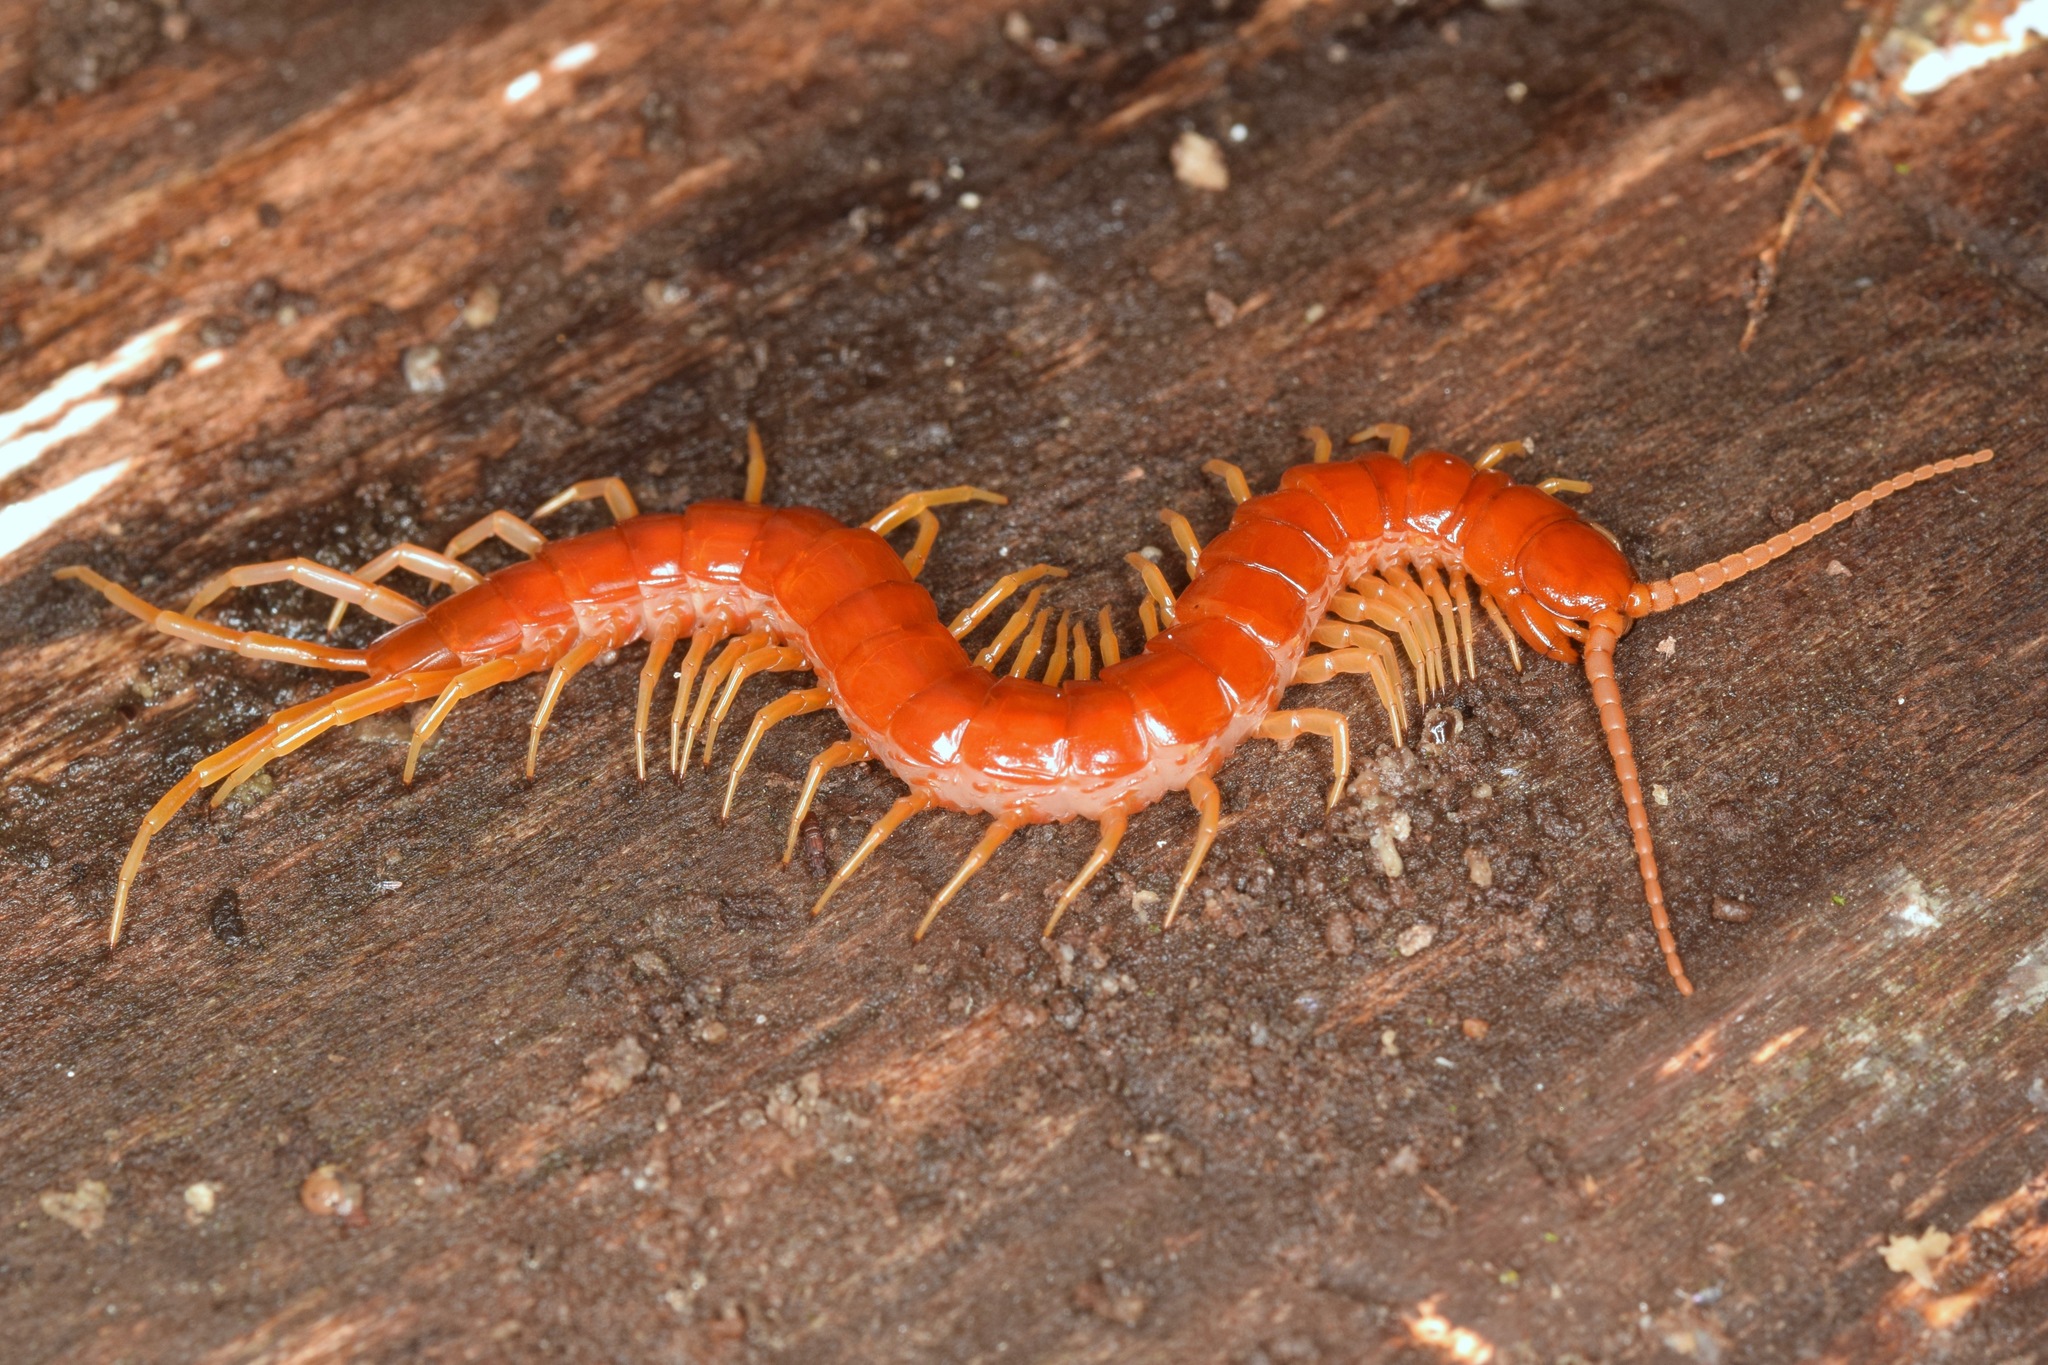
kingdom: Animalia
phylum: Arthropoda
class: Chilopoda
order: Scolopendromorpha
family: Scolopocryptopidae
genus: Scolopocryptops
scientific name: Scolopocryptops sexspinosus
